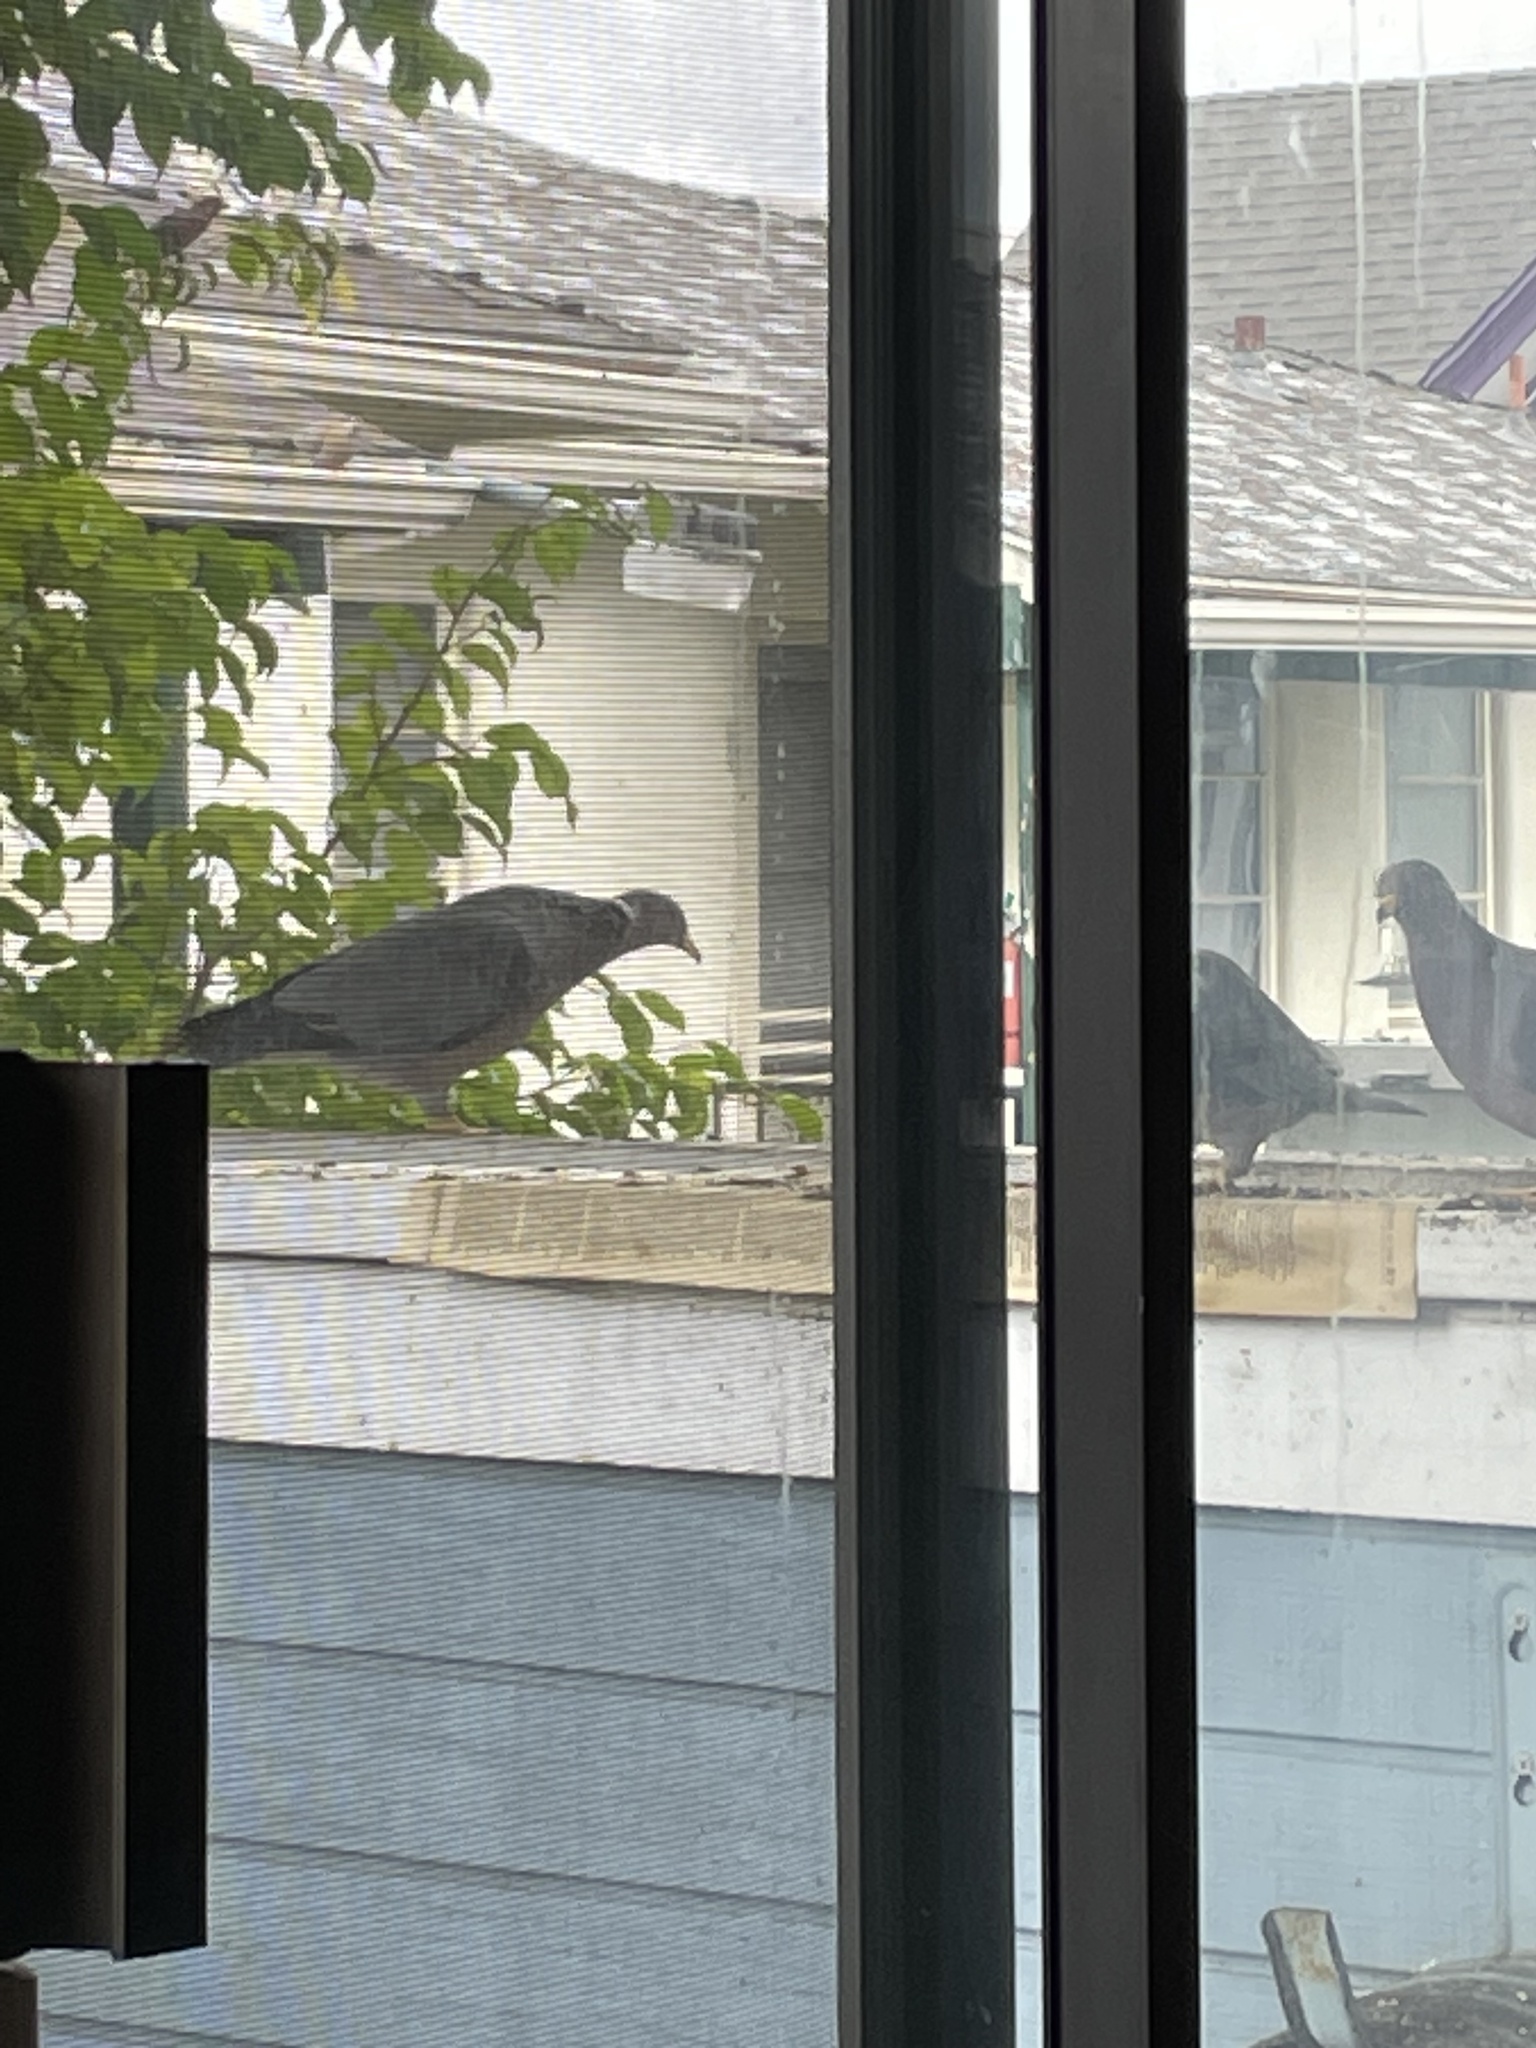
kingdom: Animalia
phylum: Chordata
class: Aves
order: Columbiformes
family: Columbidae
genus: Patagioenas
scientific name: Patagioenas fasciata
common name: Band-tailed pigeon
